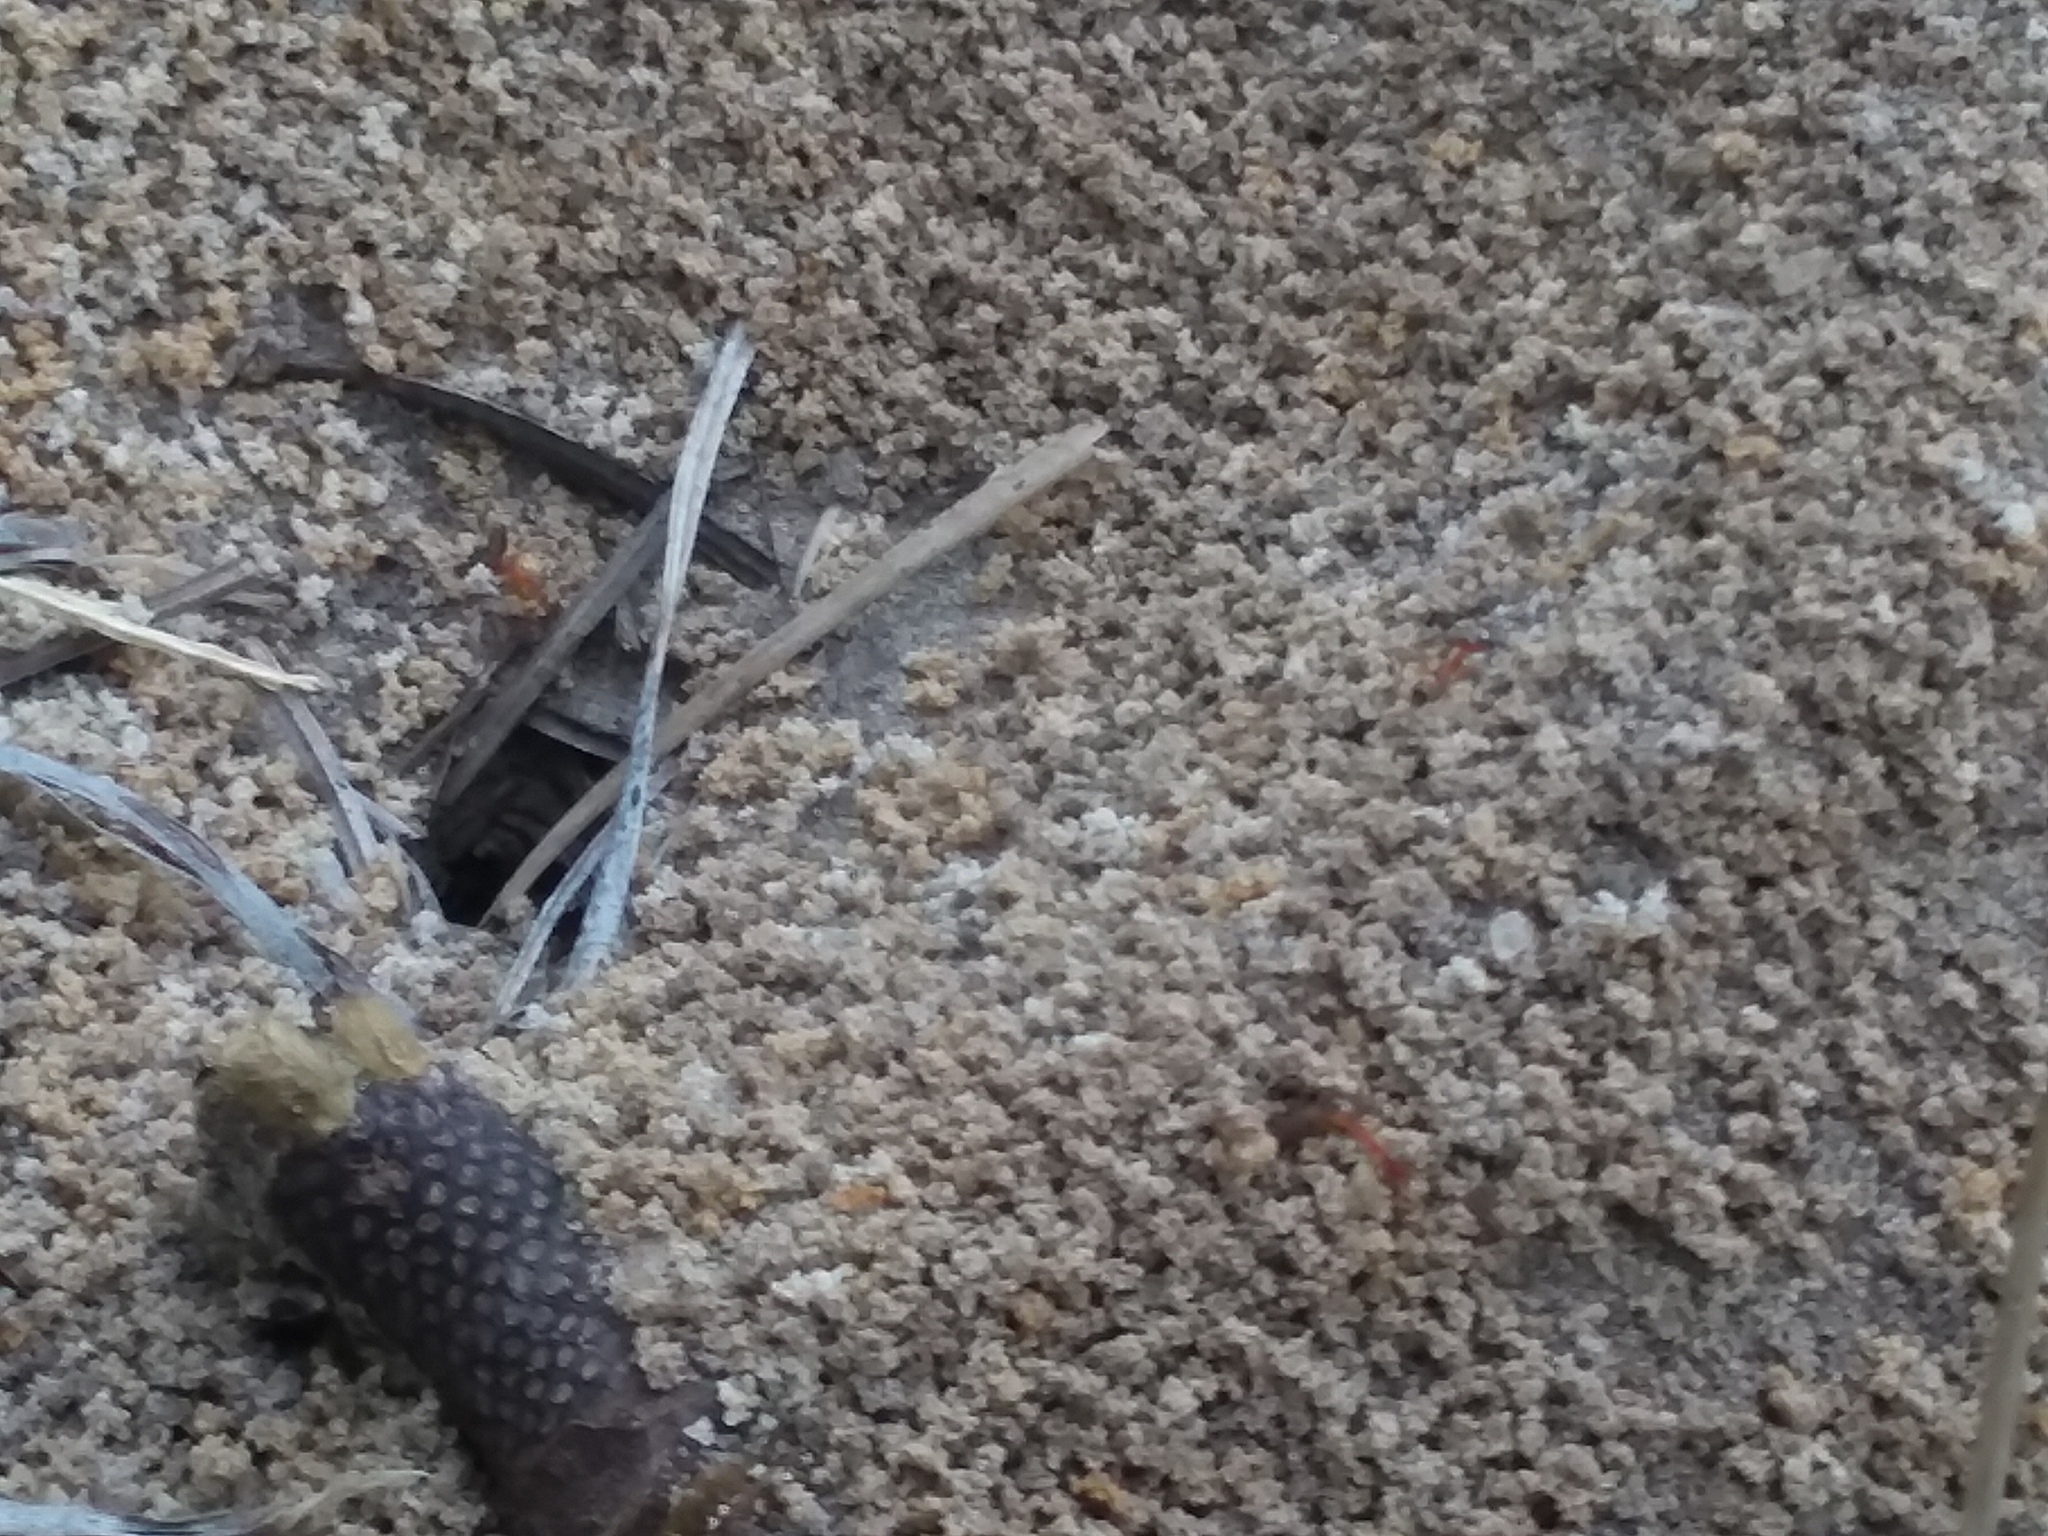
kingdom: Animalia
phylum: Arthropoda
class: Insecta
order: Hymenoptera
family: Formicidae
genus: Dorymyrmex
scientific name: Dorymyrmex bureni
